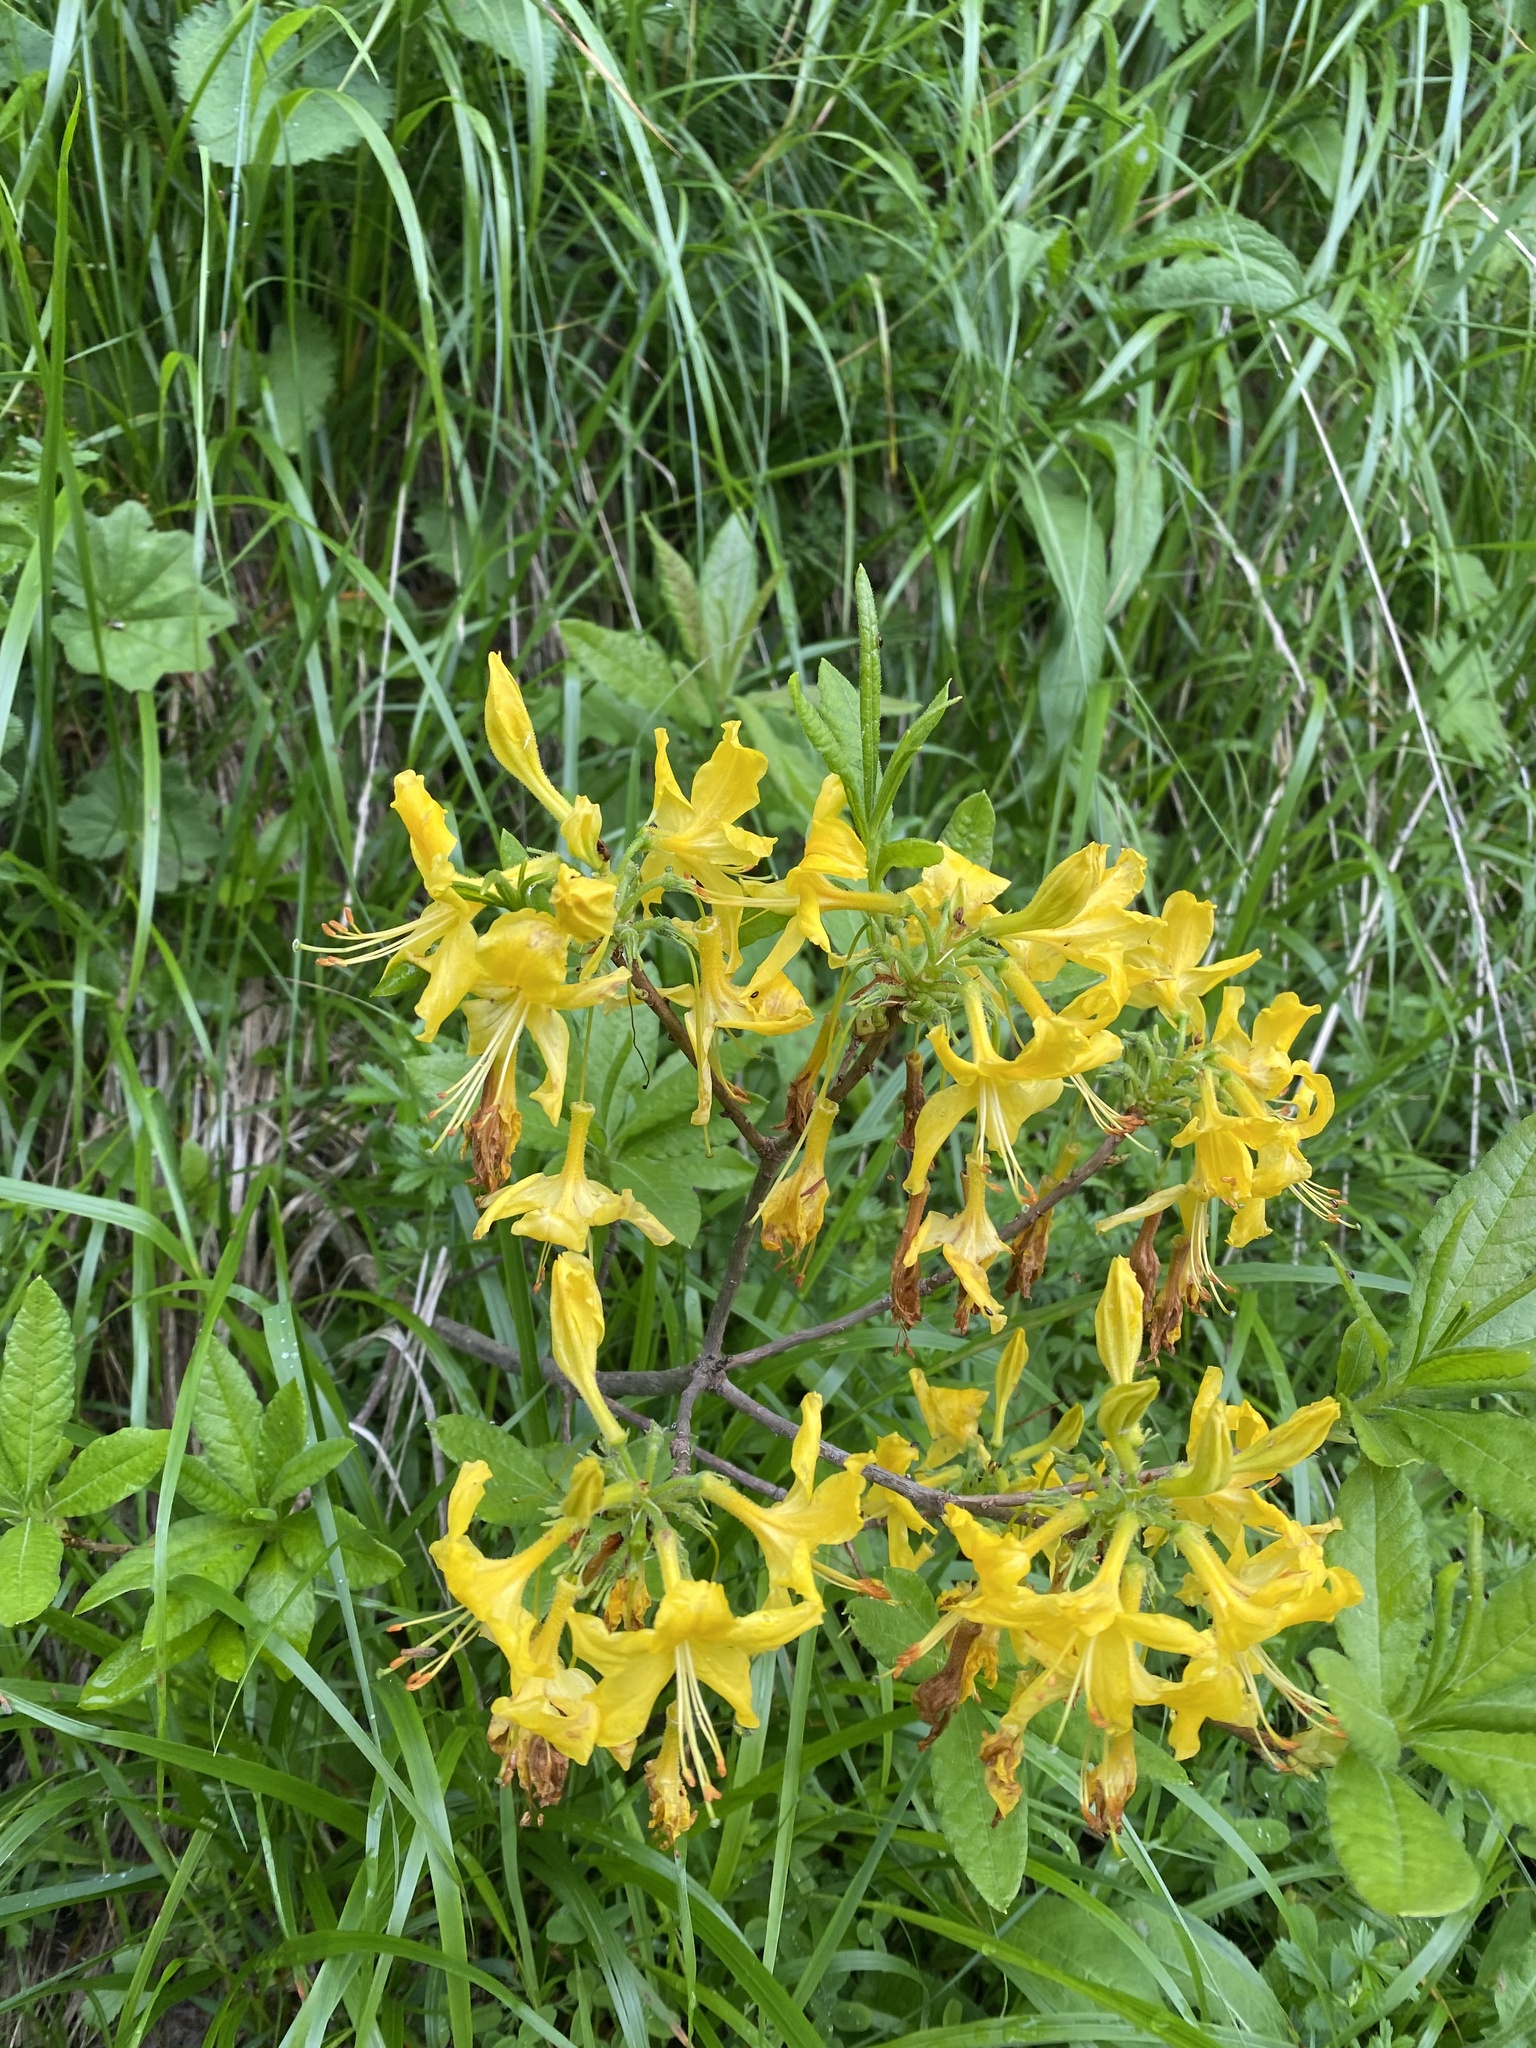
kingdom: Plantae
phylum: Tracheophyta
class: Magnoliopsida
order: Ericales
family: Ericaceae
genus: Rhododendron
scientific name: Rhododendron luteum
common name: Yellow azalea
